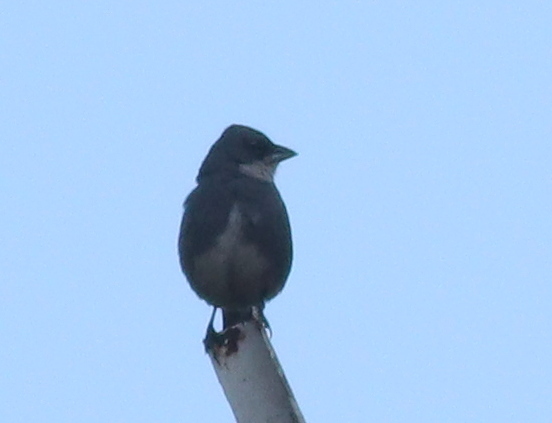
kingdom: Animalia
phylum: Chordata
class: Aves
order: Passeriformes
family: Thraupidae
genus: Diuca
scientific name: Diuca diuca
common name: Common diuca finch
